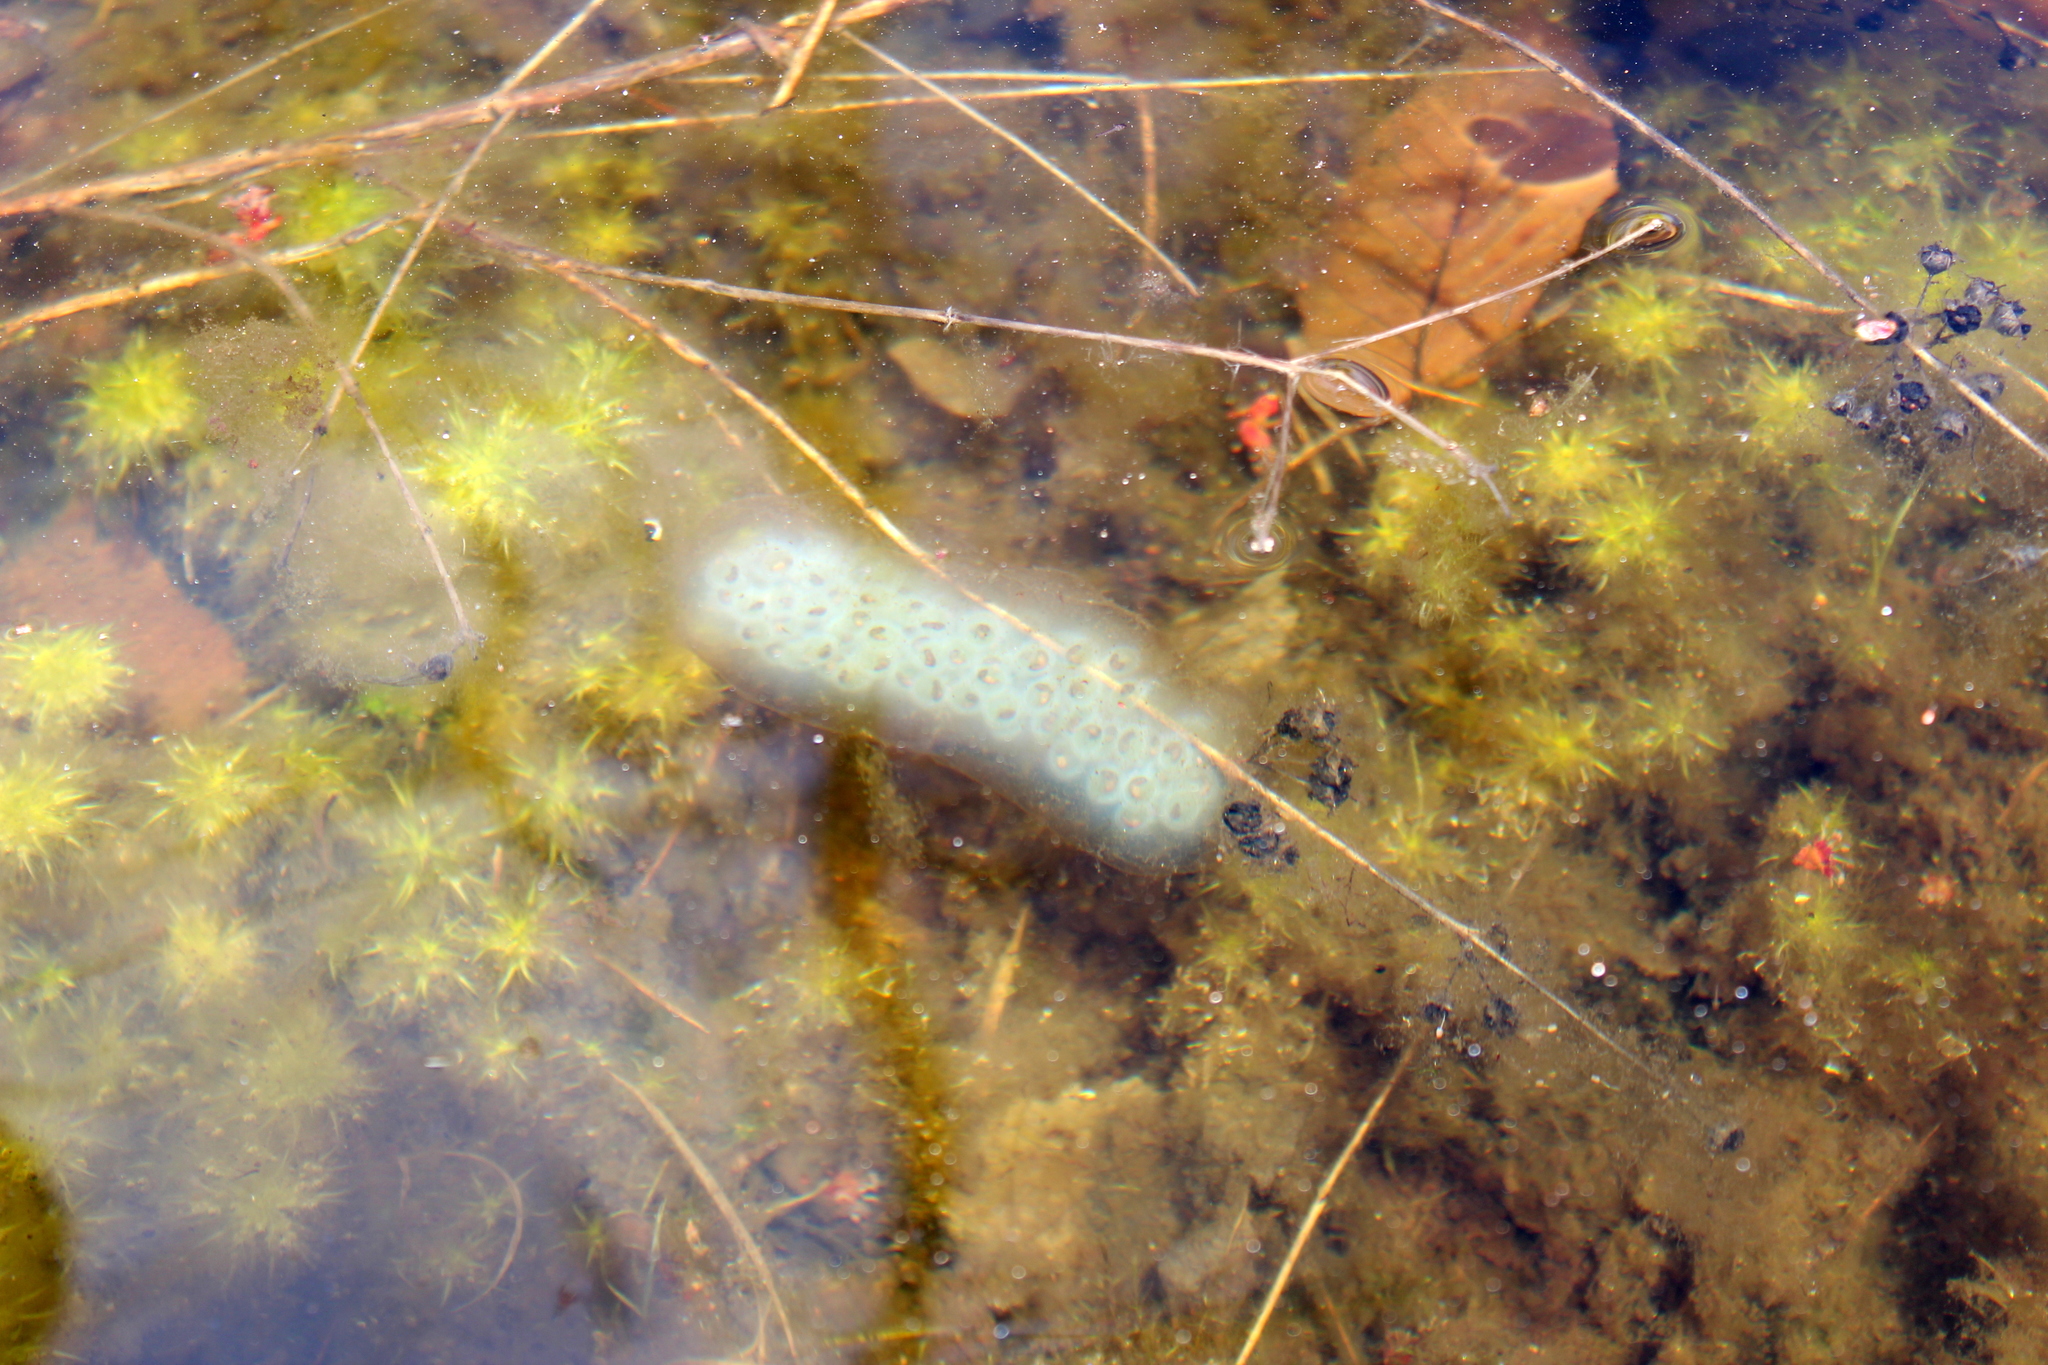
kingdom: Animalia
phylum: Chordata
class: Amphibia
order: Caudata
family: Ambystomatidae
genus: Ambystoma
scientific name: Ambystoma maculatum
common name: Spotted salamander
